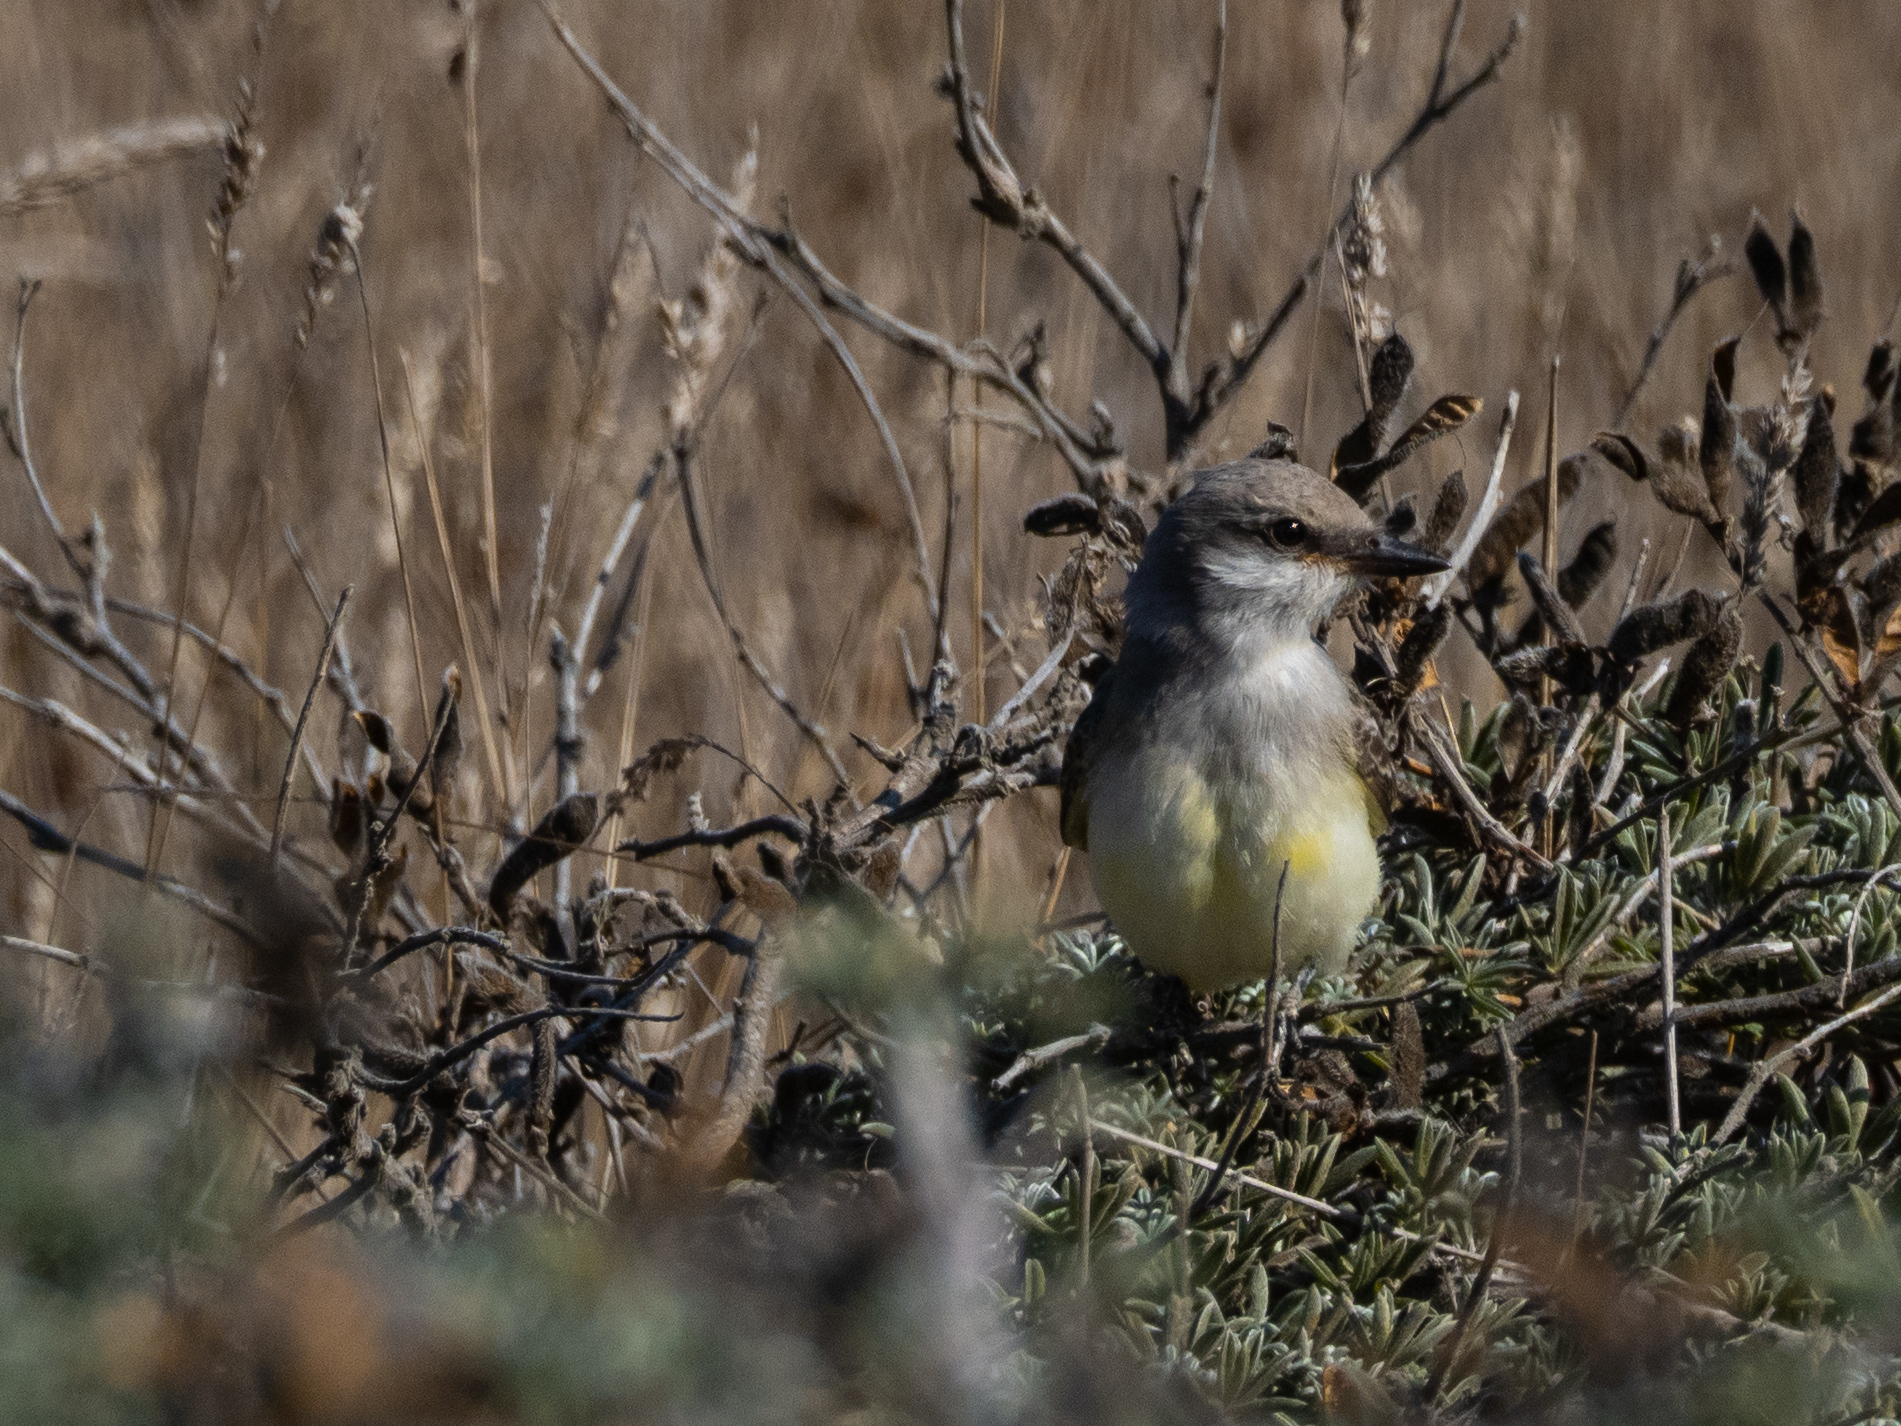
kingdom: Animalia
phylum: Chordata
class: Aves
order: Passeriformes
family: Tyrannidae
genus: Tyrannus
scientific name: Tyrannus verticalis
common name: Western kingbird
